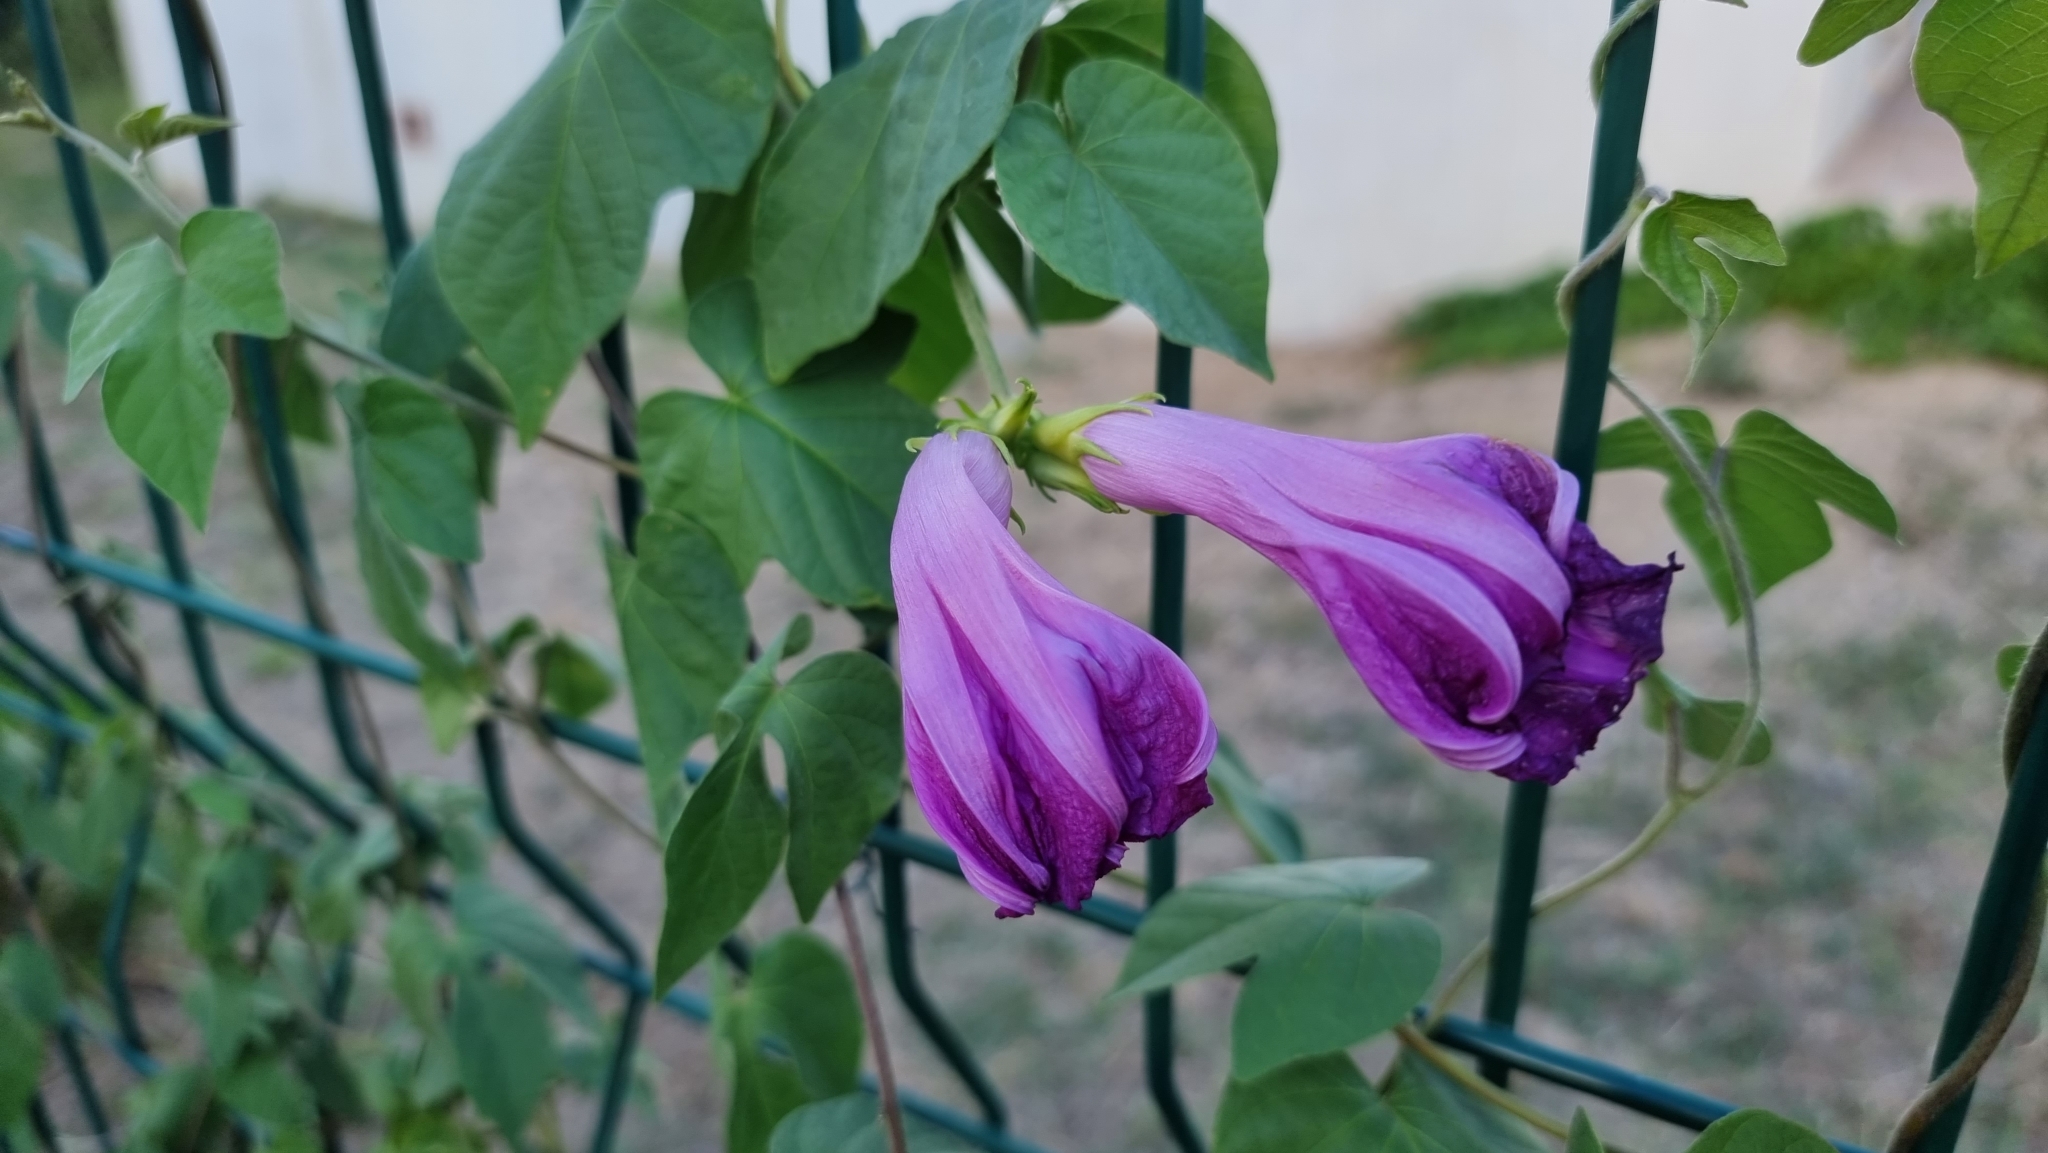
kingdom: Plantae
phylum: Tracheophyta
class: Magnoliopsida
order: Solanales
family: Convolvulaceae
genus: Ipomoea
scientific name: Ipomoea indica
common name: Blue dawnflower
